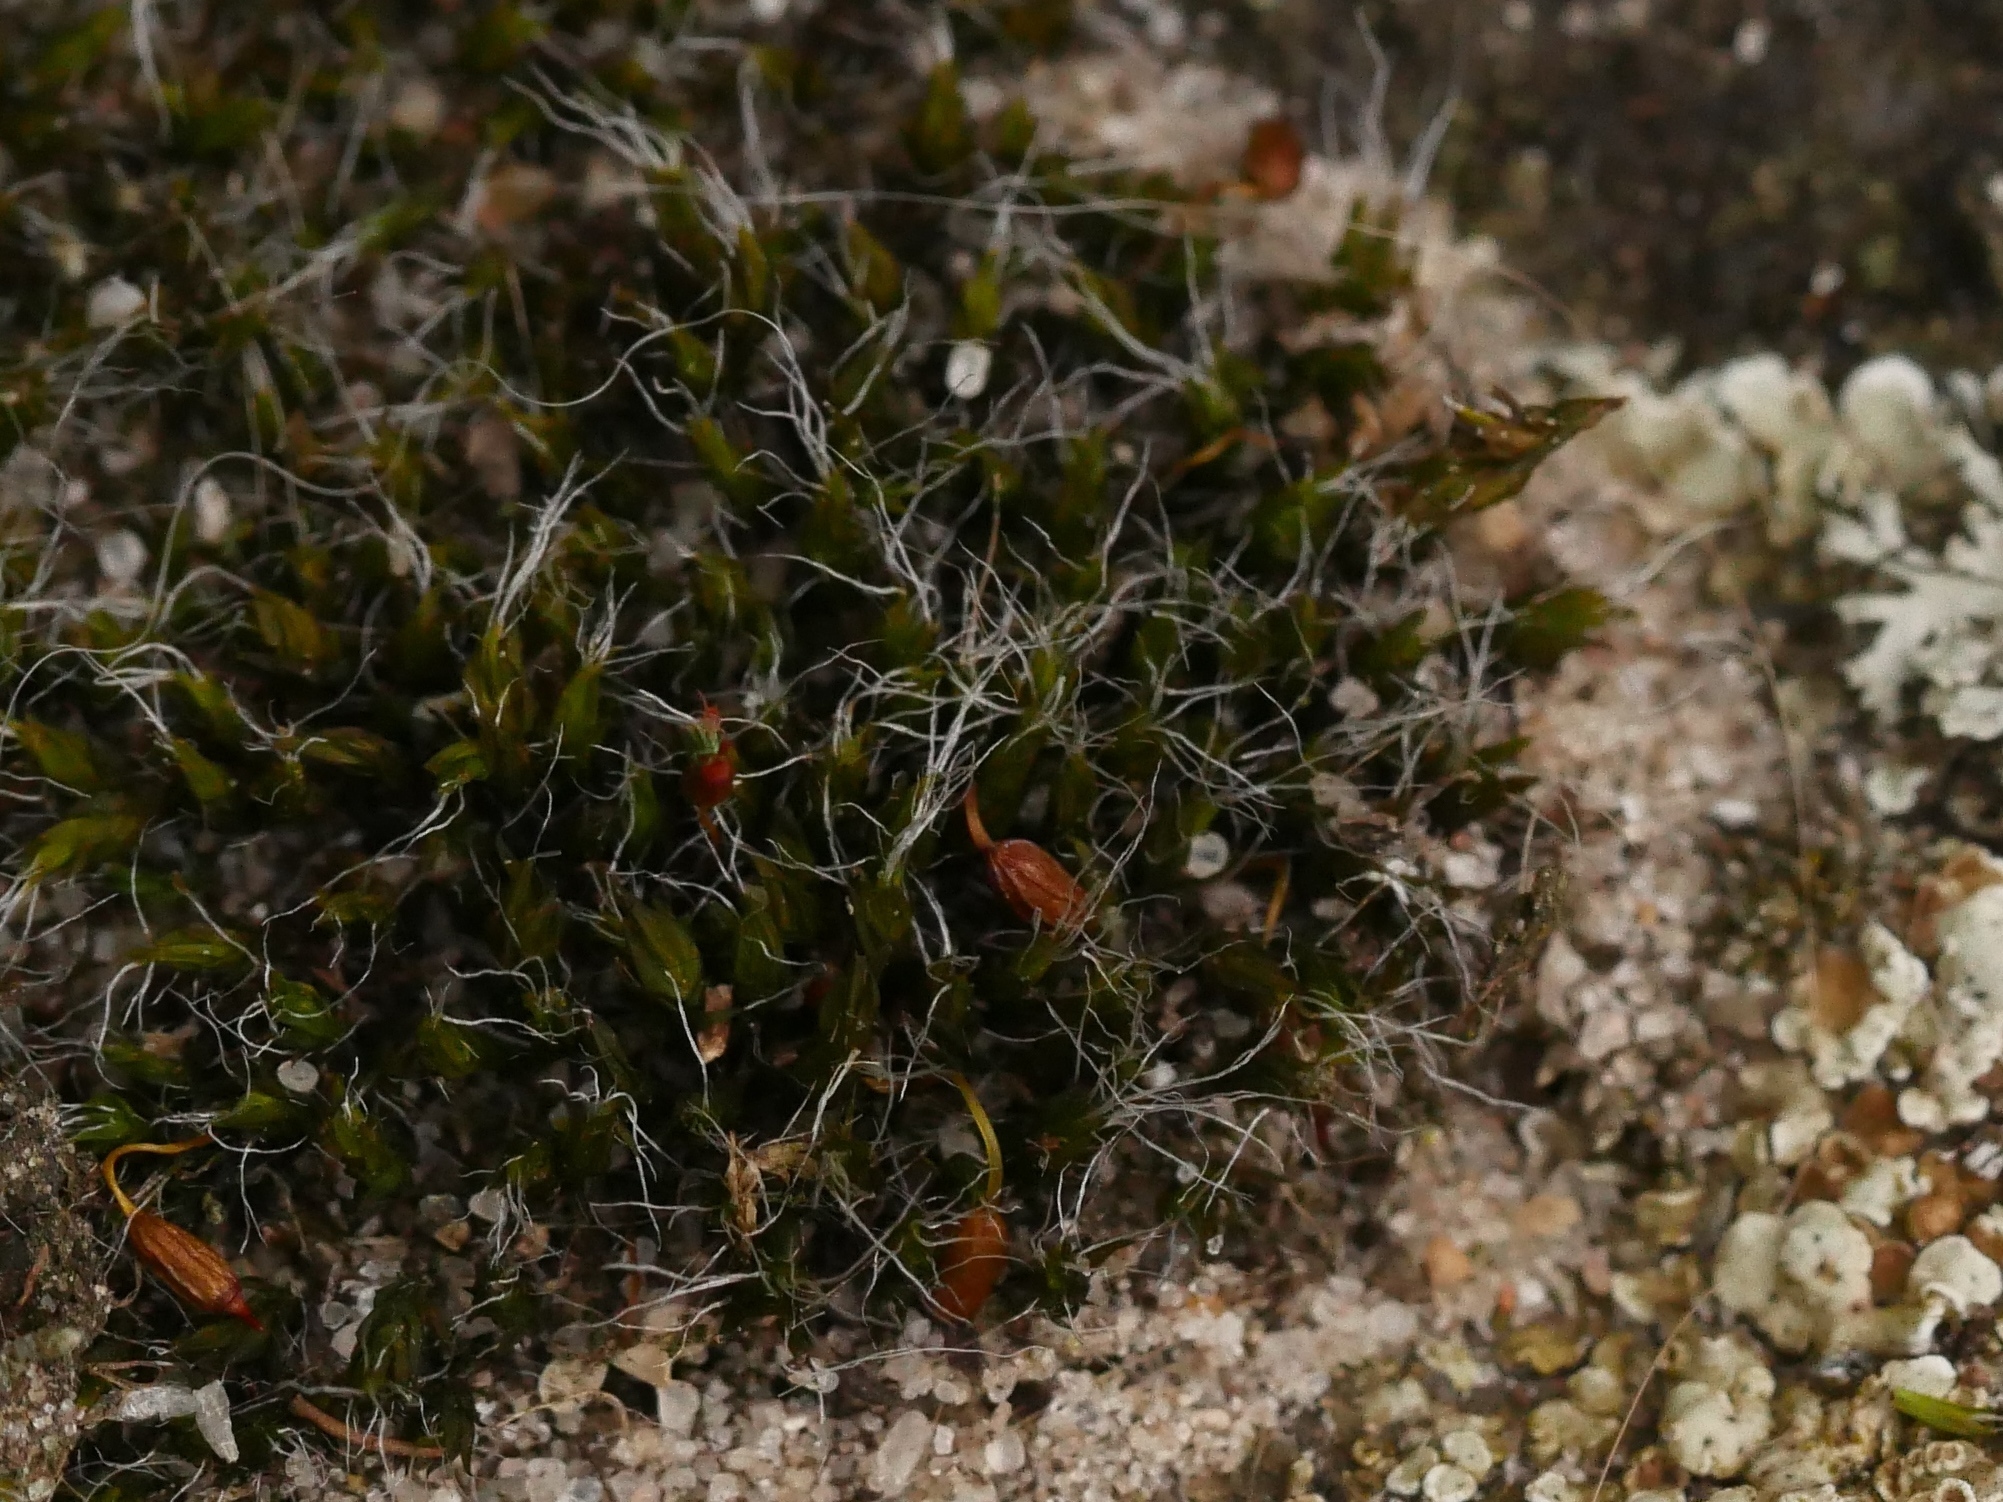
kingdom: Plantae
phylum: Bryophyta
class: Bryopsida
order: Grimmiales
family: Grimmiaceae
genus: Grimmia
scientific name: Grimmia pulvinata
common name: Grey-cushioned grimmia
